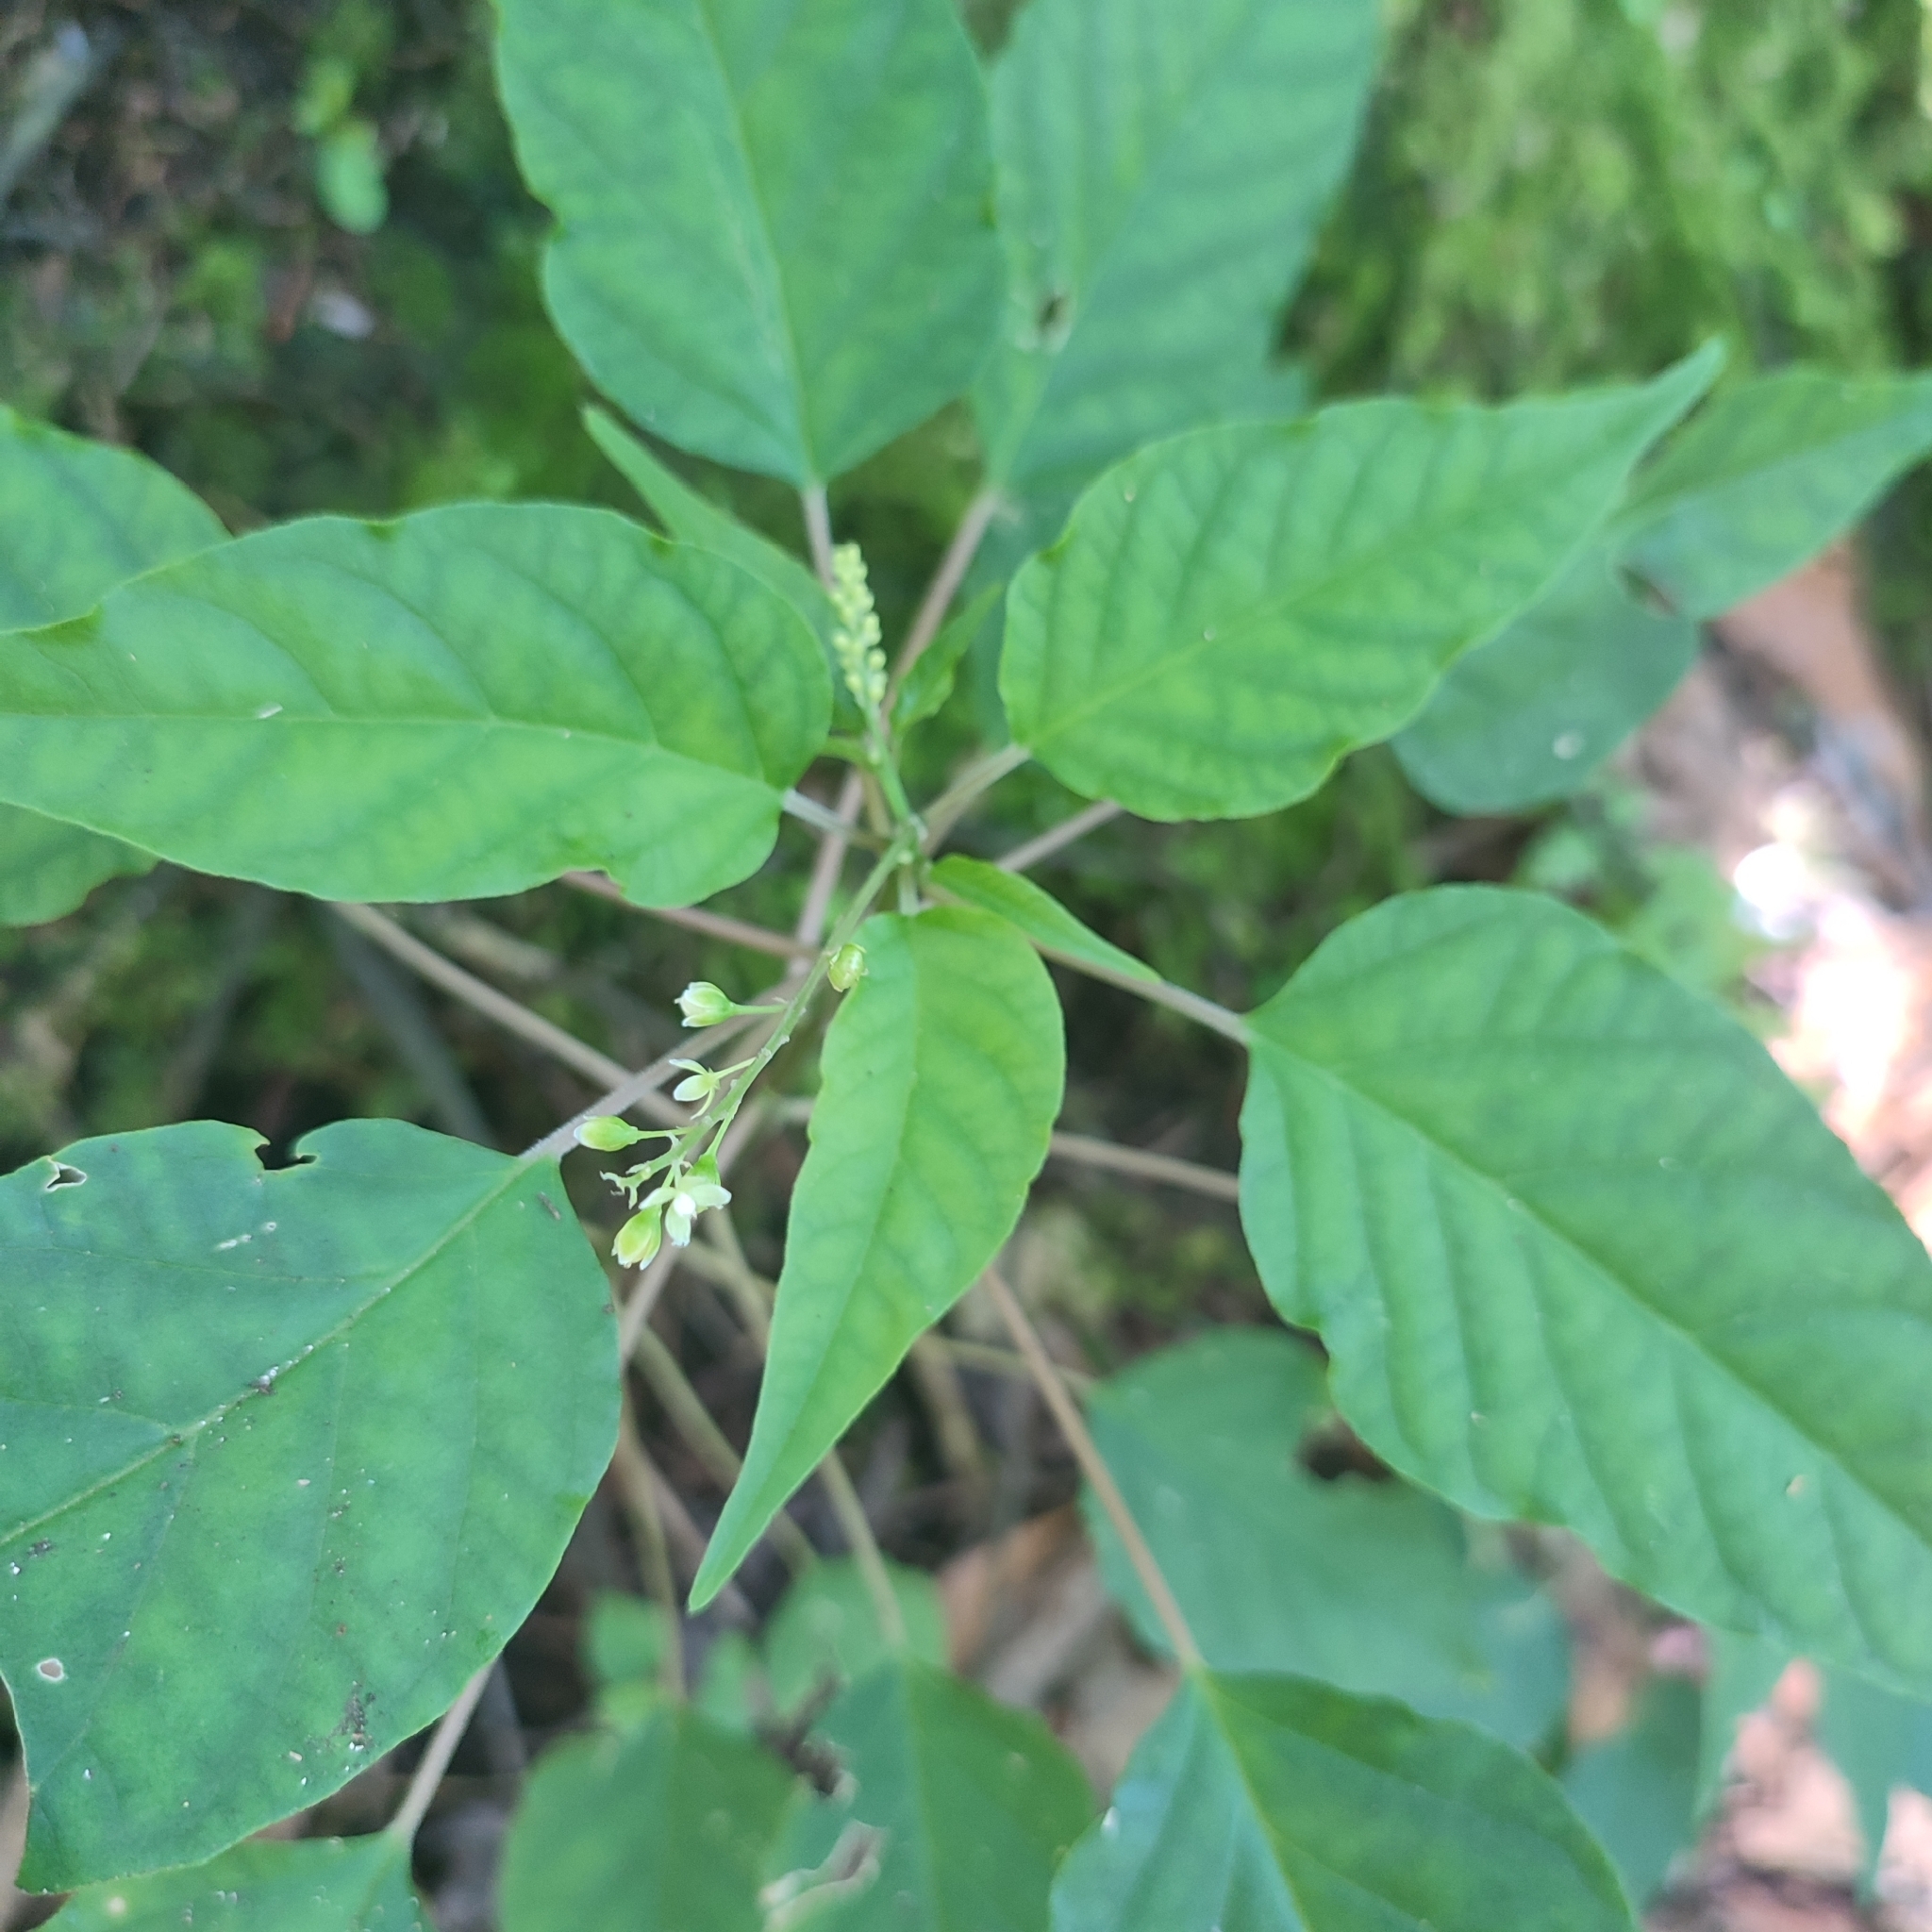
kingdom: Plantae
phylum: Tracheophyta
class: Magnoliopsida
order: Caryophyllales
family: Phytolaccaceae
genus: Rivina
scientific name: Rivina humilis
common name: Rougeplant
